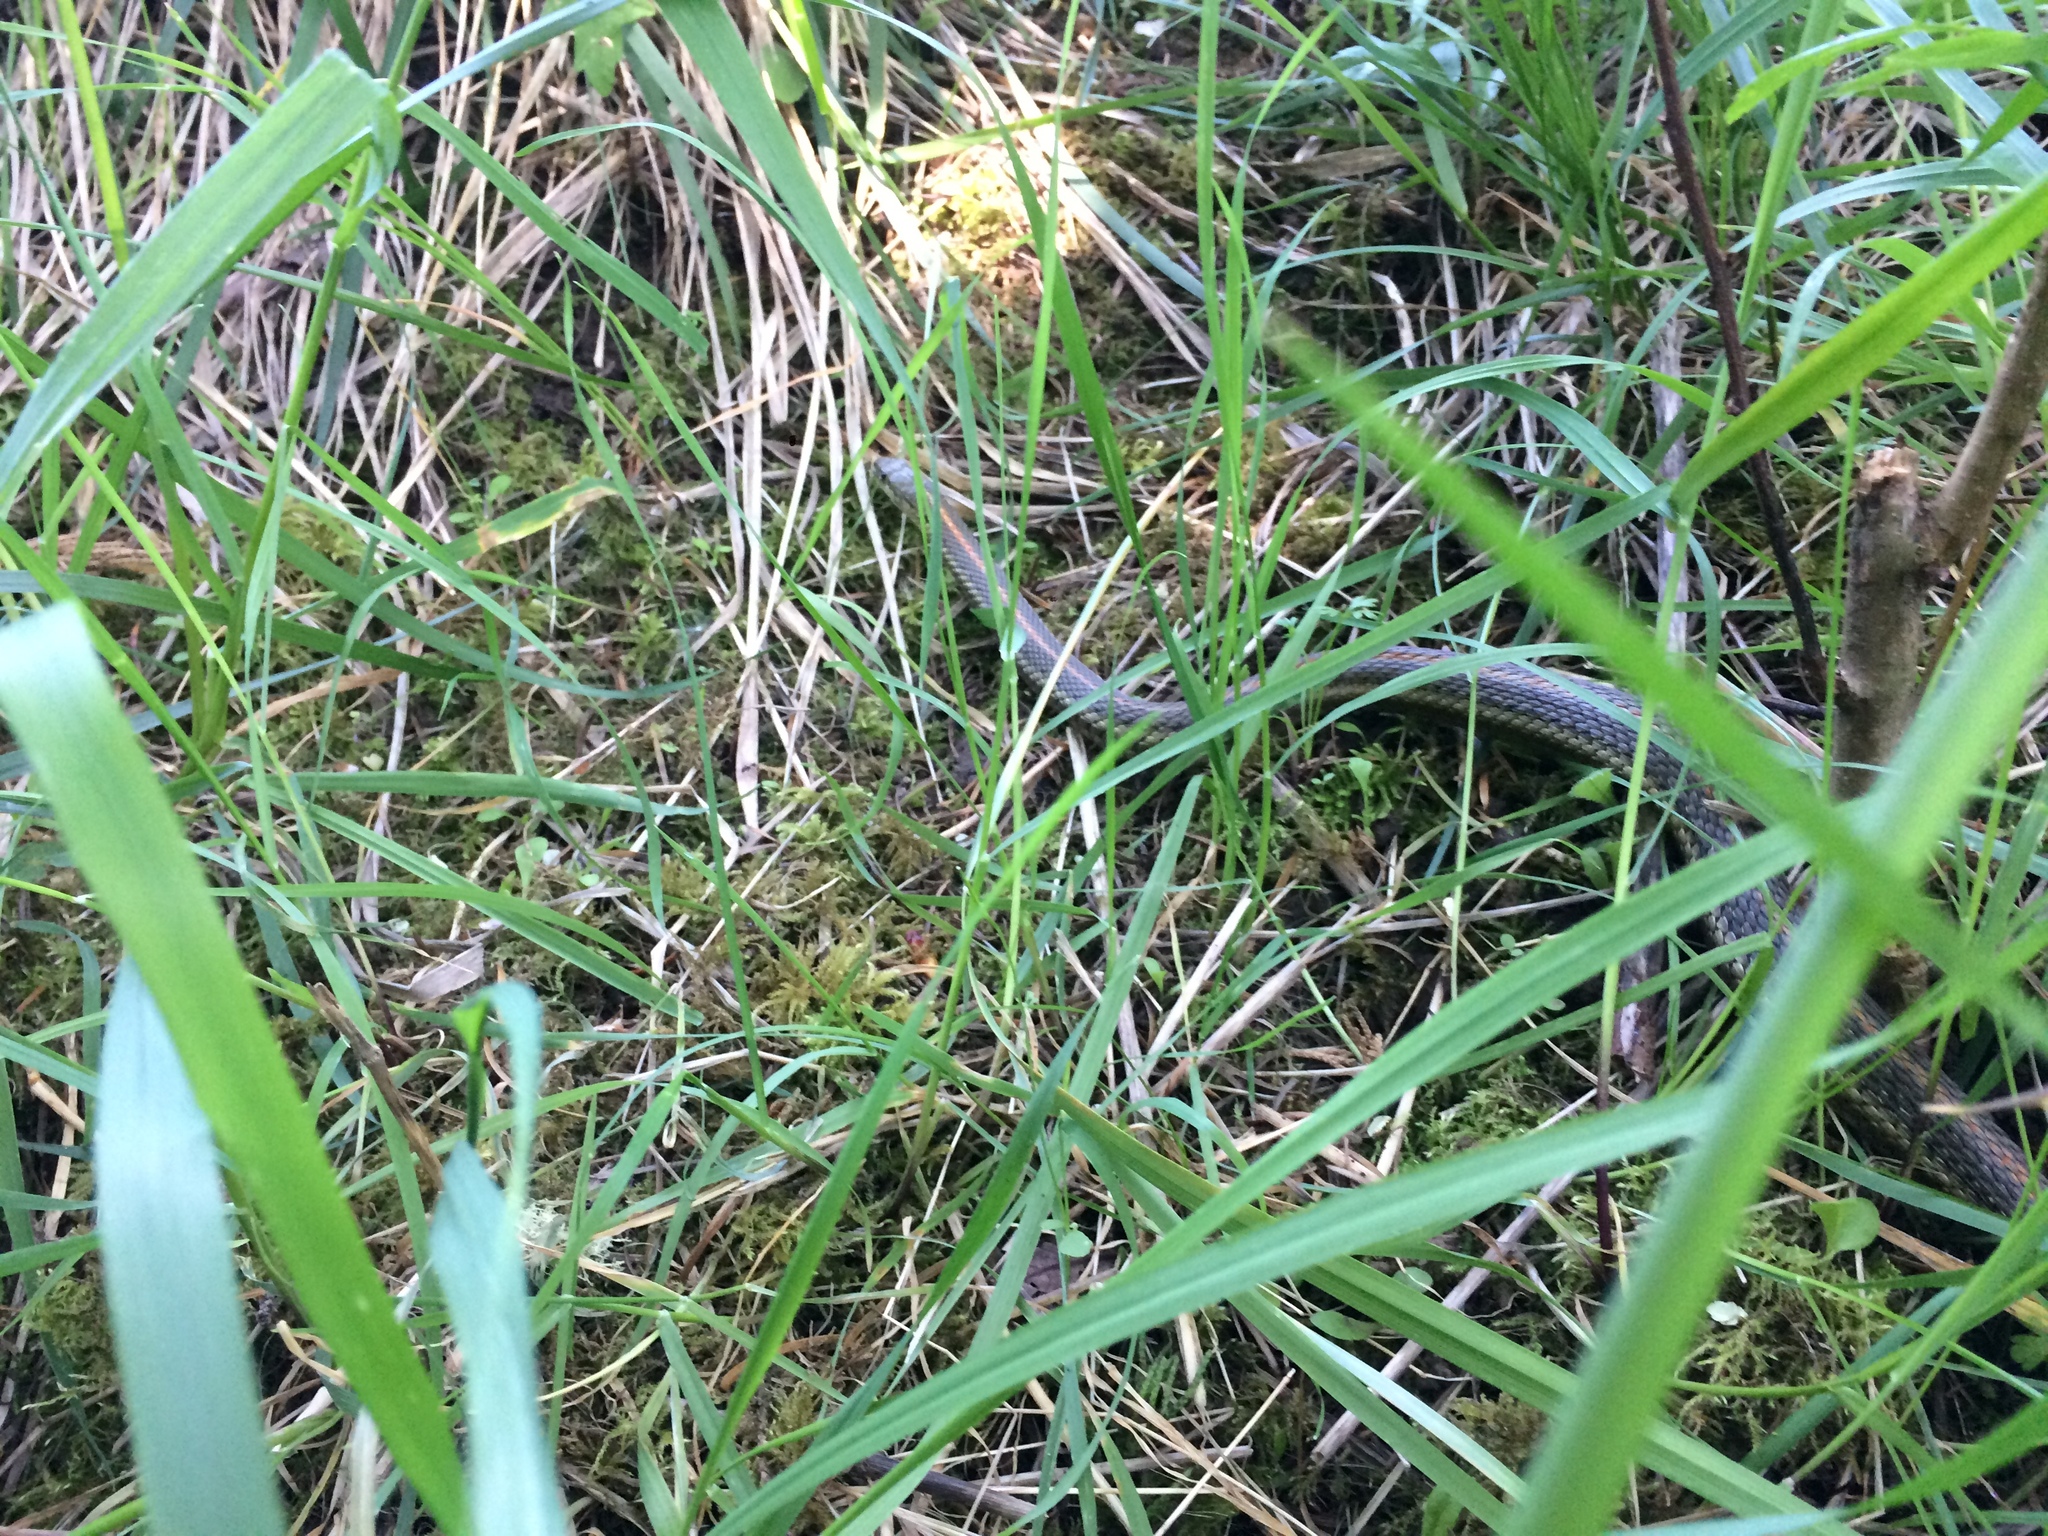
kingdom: Animalia
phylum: Chordata
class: Squamata
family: Colubridae
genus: Thamnophis
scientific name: Thamnophis ordinoides
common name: Northwestern garter snake
